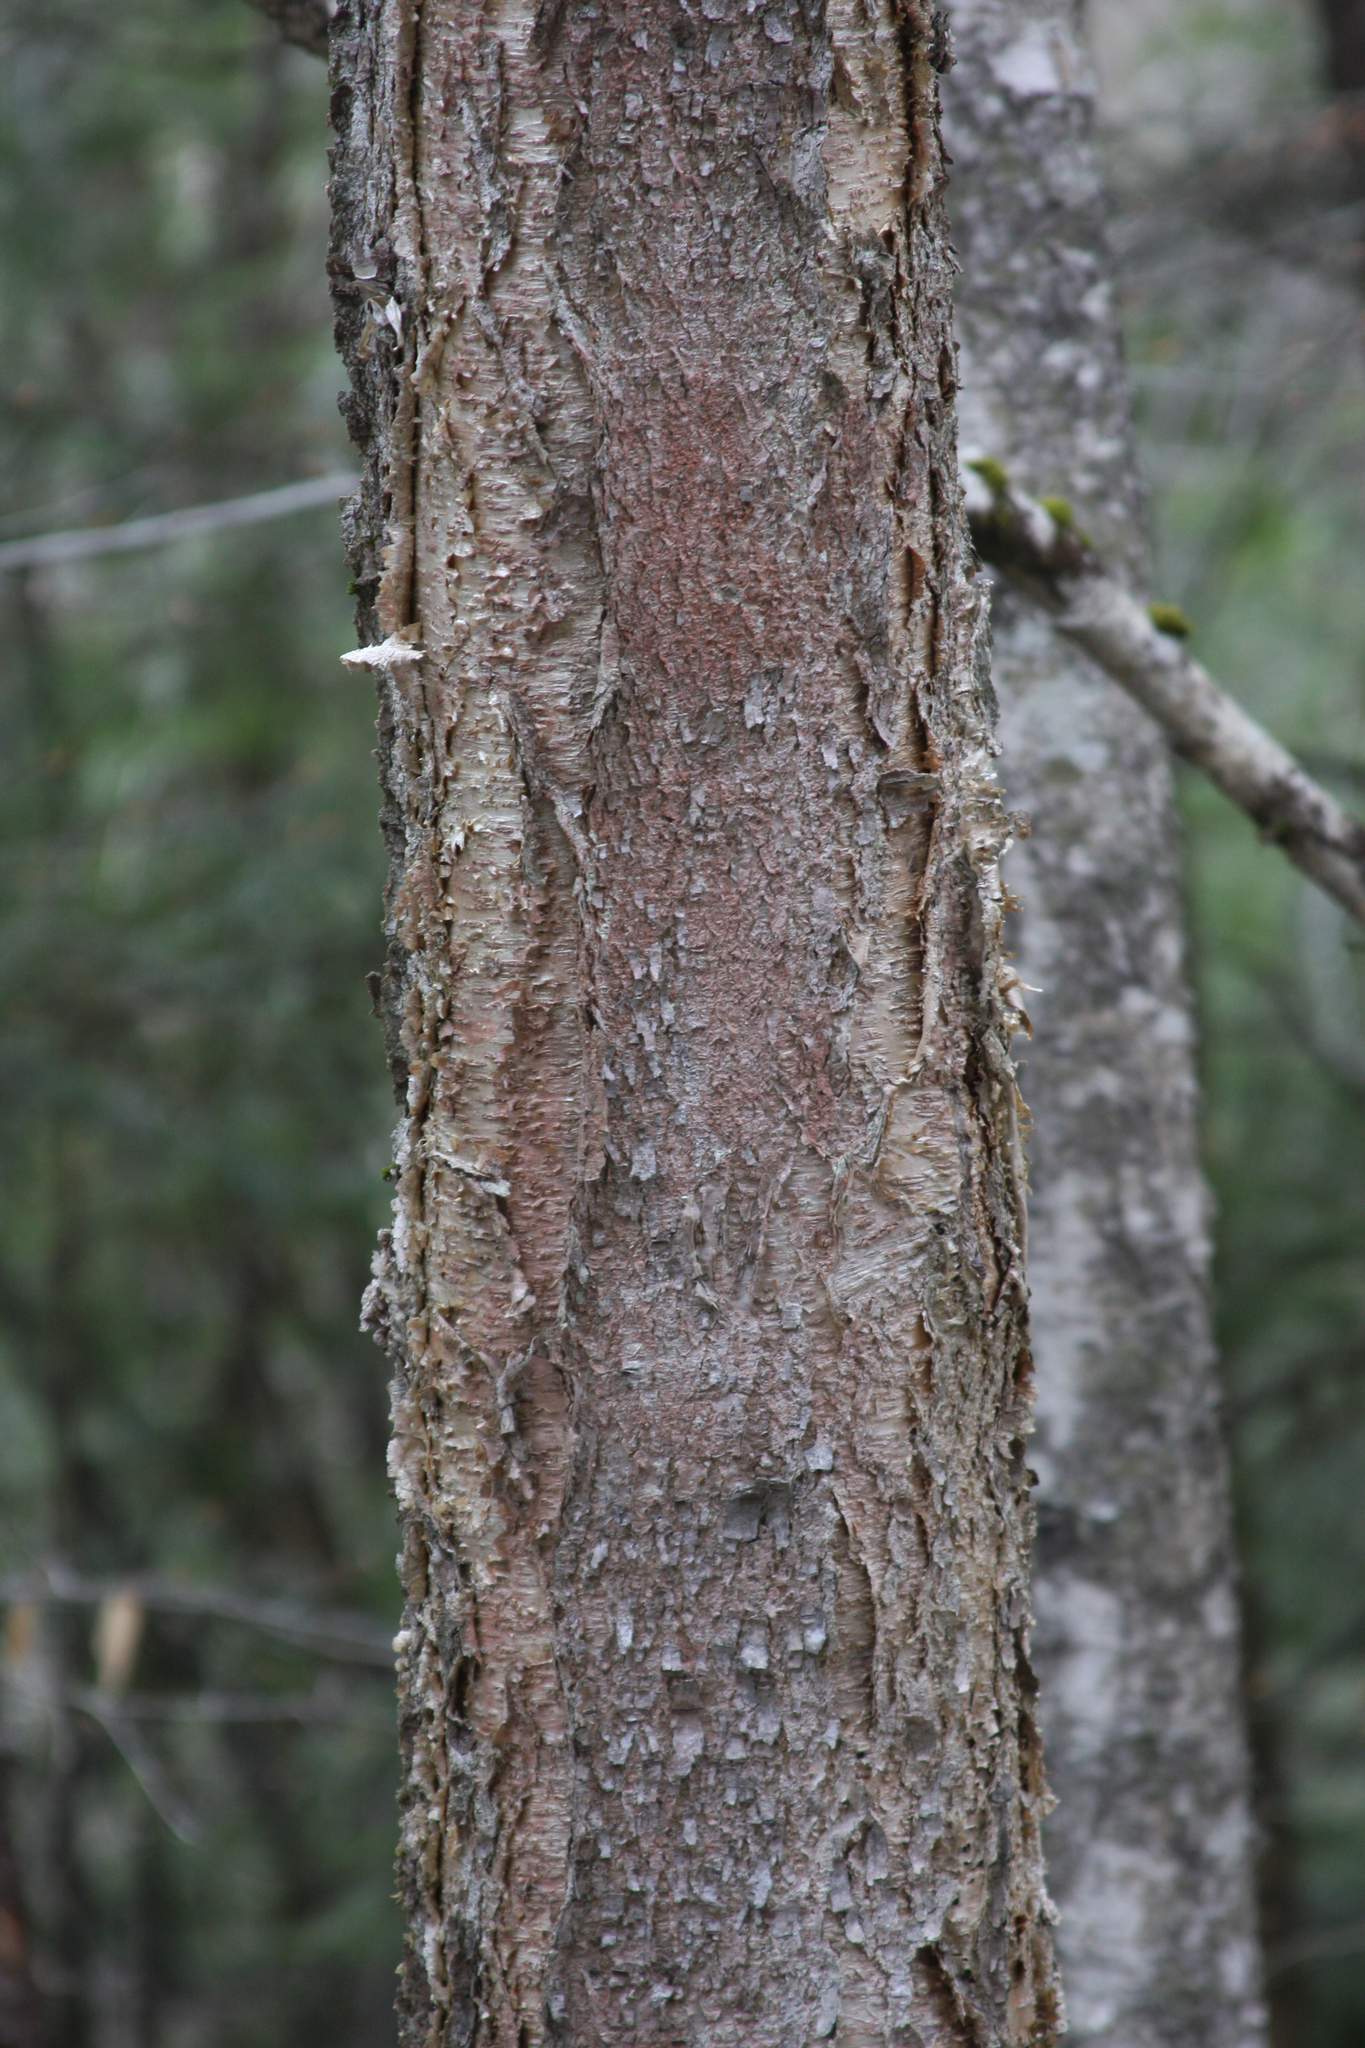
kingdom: Plantae
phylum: Tracheophyta
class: Magnoliopsida
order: Fagales
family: Betulaceae
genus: Betula
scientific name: Betula alleghaniensis
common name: Yellow birch
